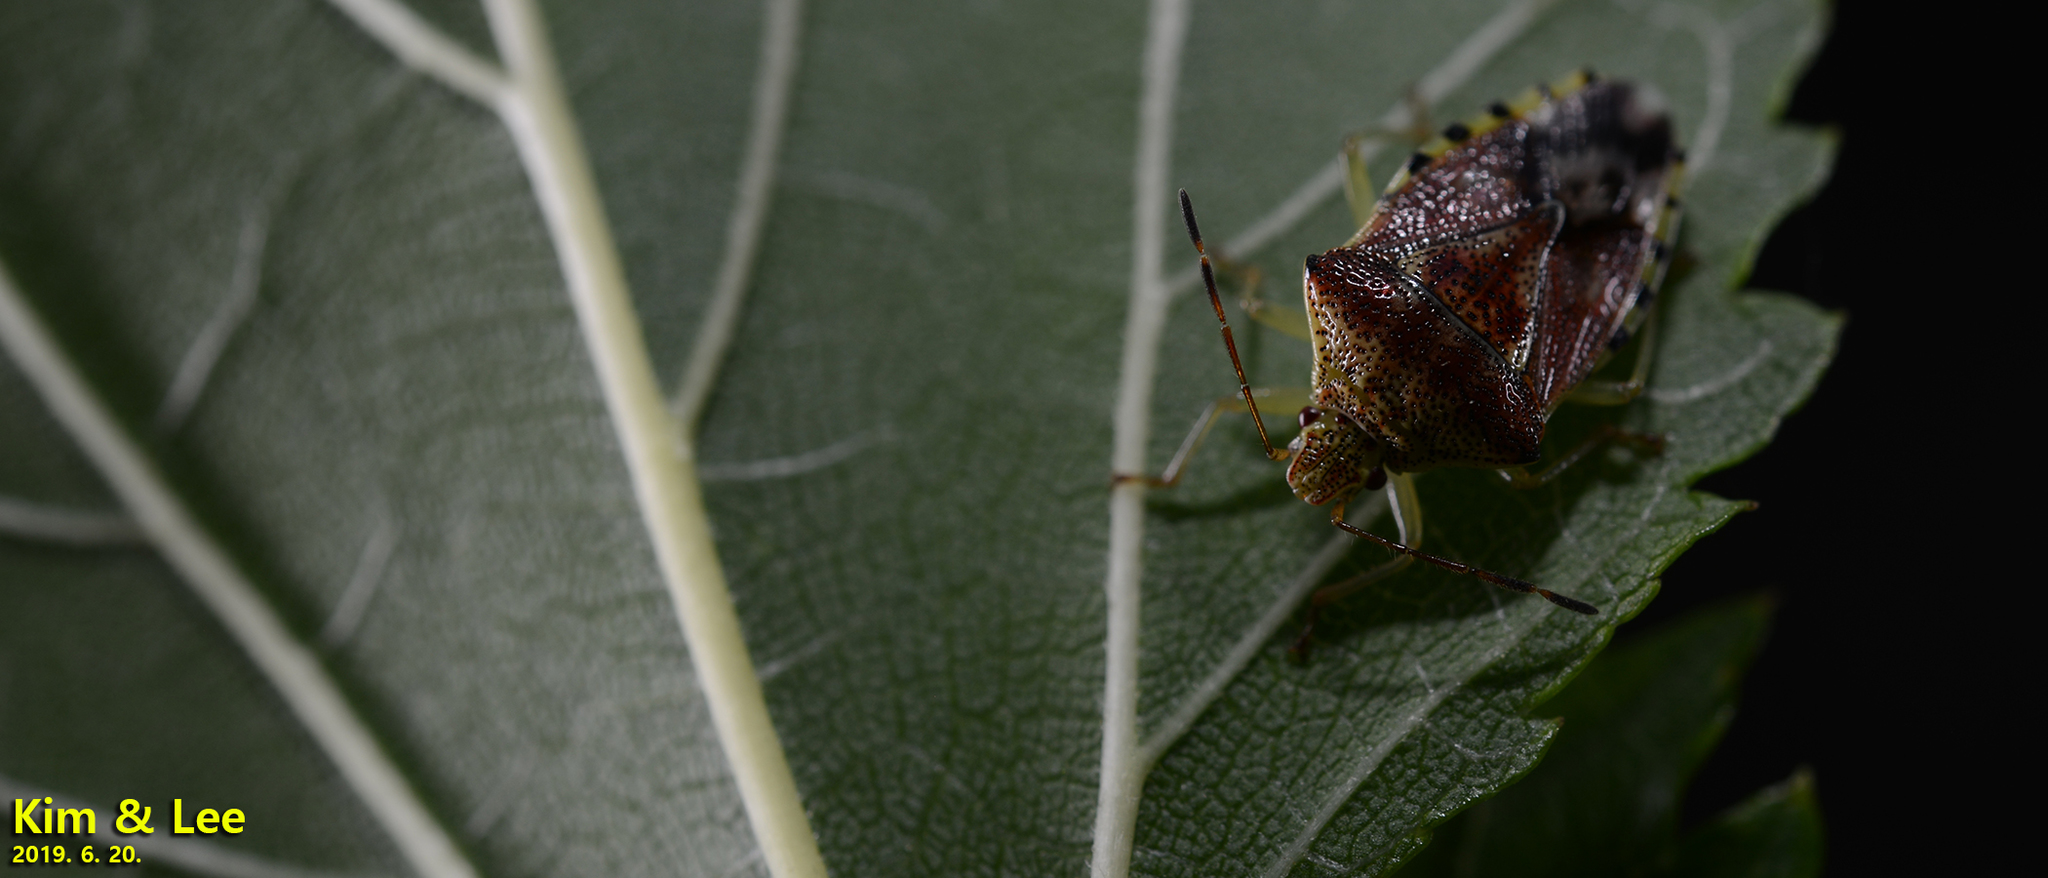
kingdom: Animalia
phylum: Arthropoda
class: Insecta
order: Hemiptera
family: Acanthosomatidae
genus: Elasmucha
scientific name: Elasmucha putoni
